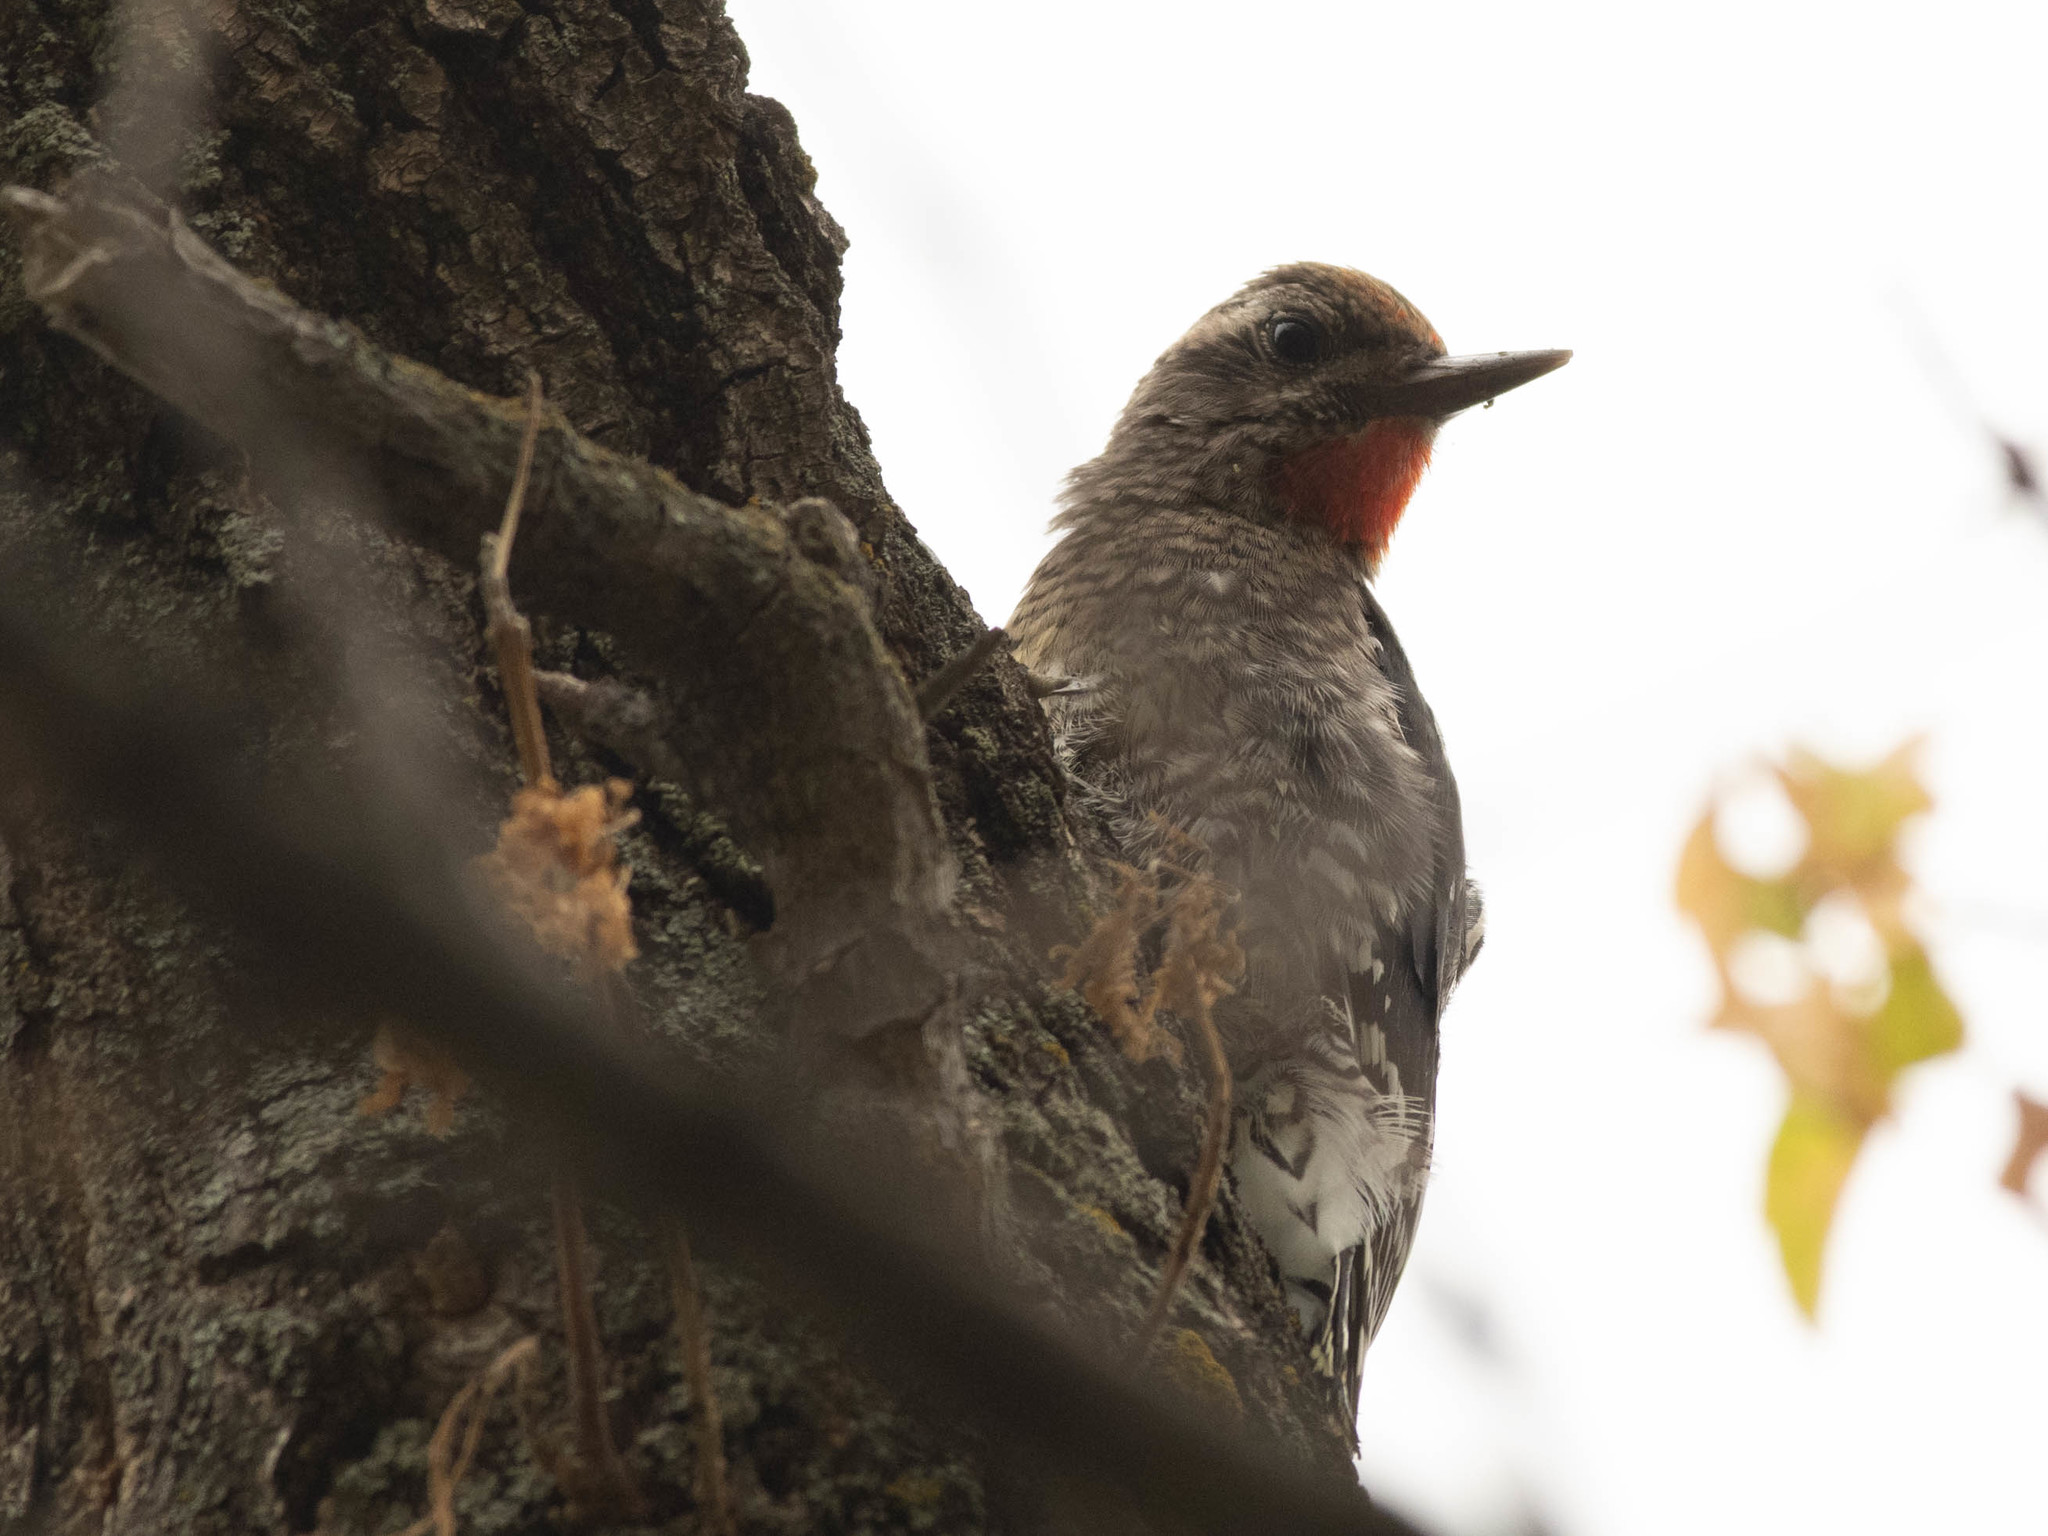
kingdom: Animalia
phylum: Chordata
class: Aves
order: Piciformes
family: Picidae
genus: Sphyrapicus
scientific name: Sphyrapicus varius
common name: Yellow-bellied sapsucker
